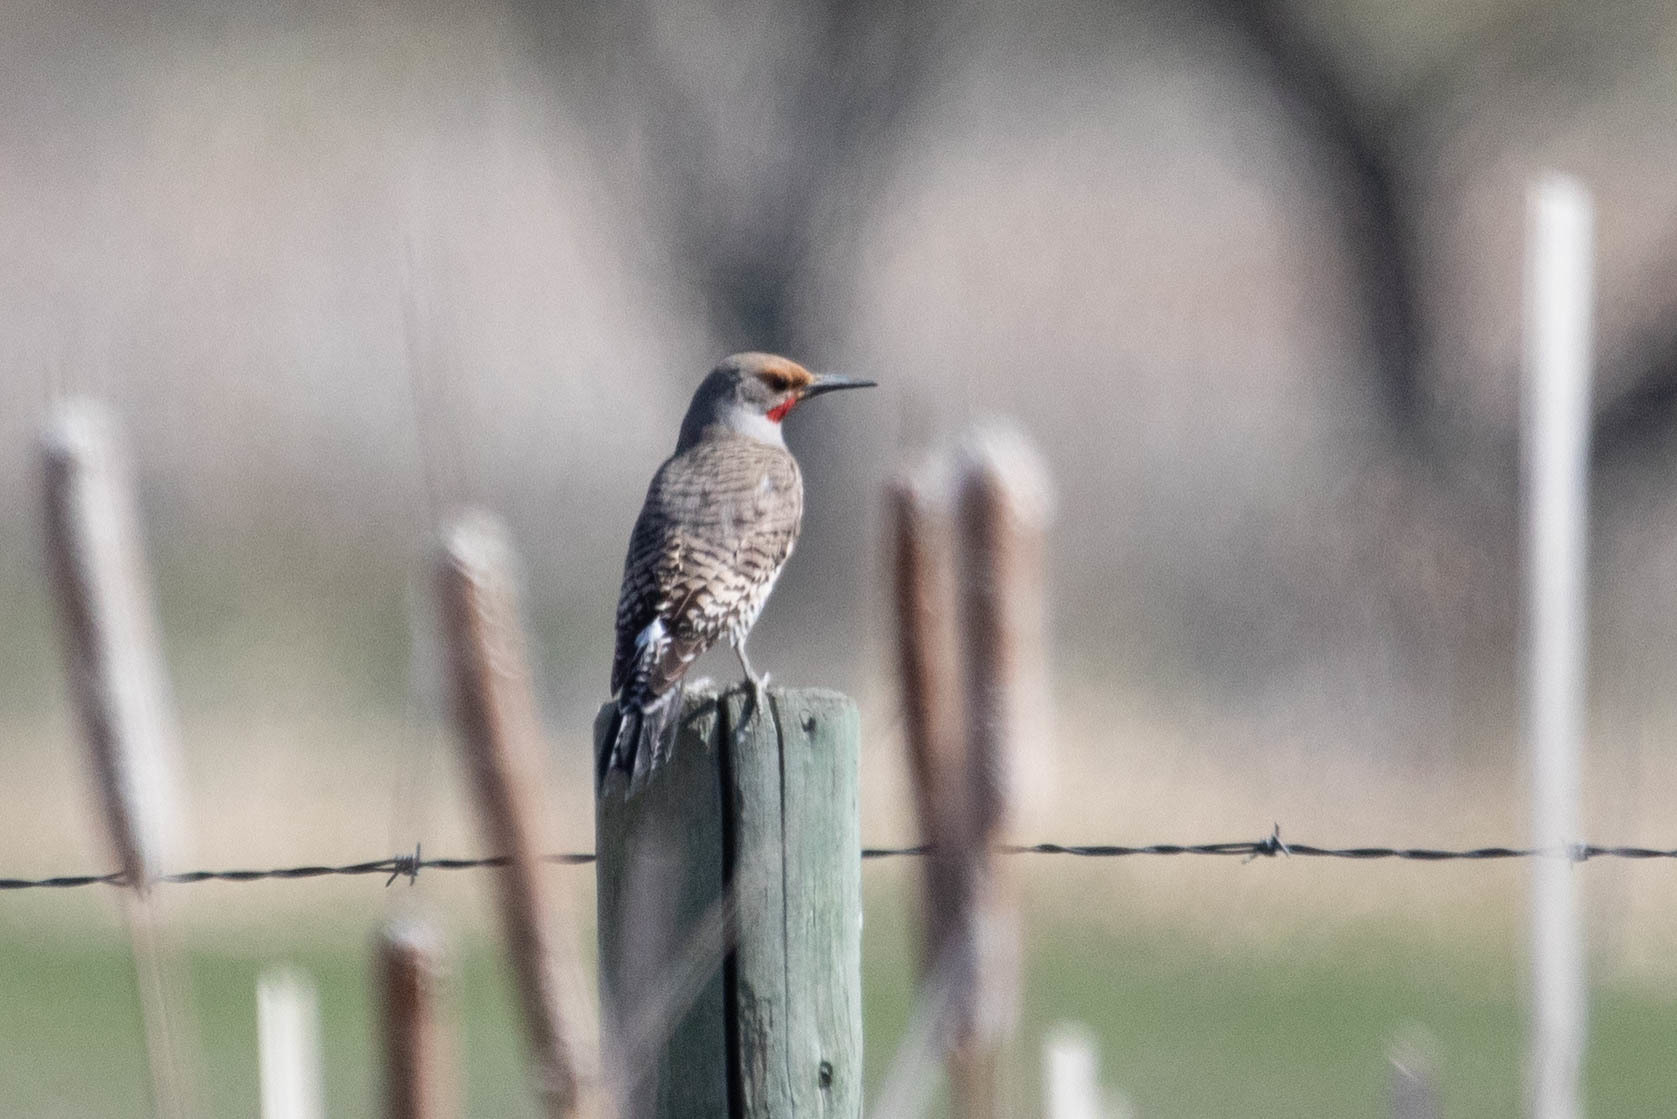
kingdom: Animalia
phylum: Chordata
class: Aves
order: Piciformes
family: Picidae
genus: Colaptes
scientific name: Colaptes auratus
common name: Northern flicker
